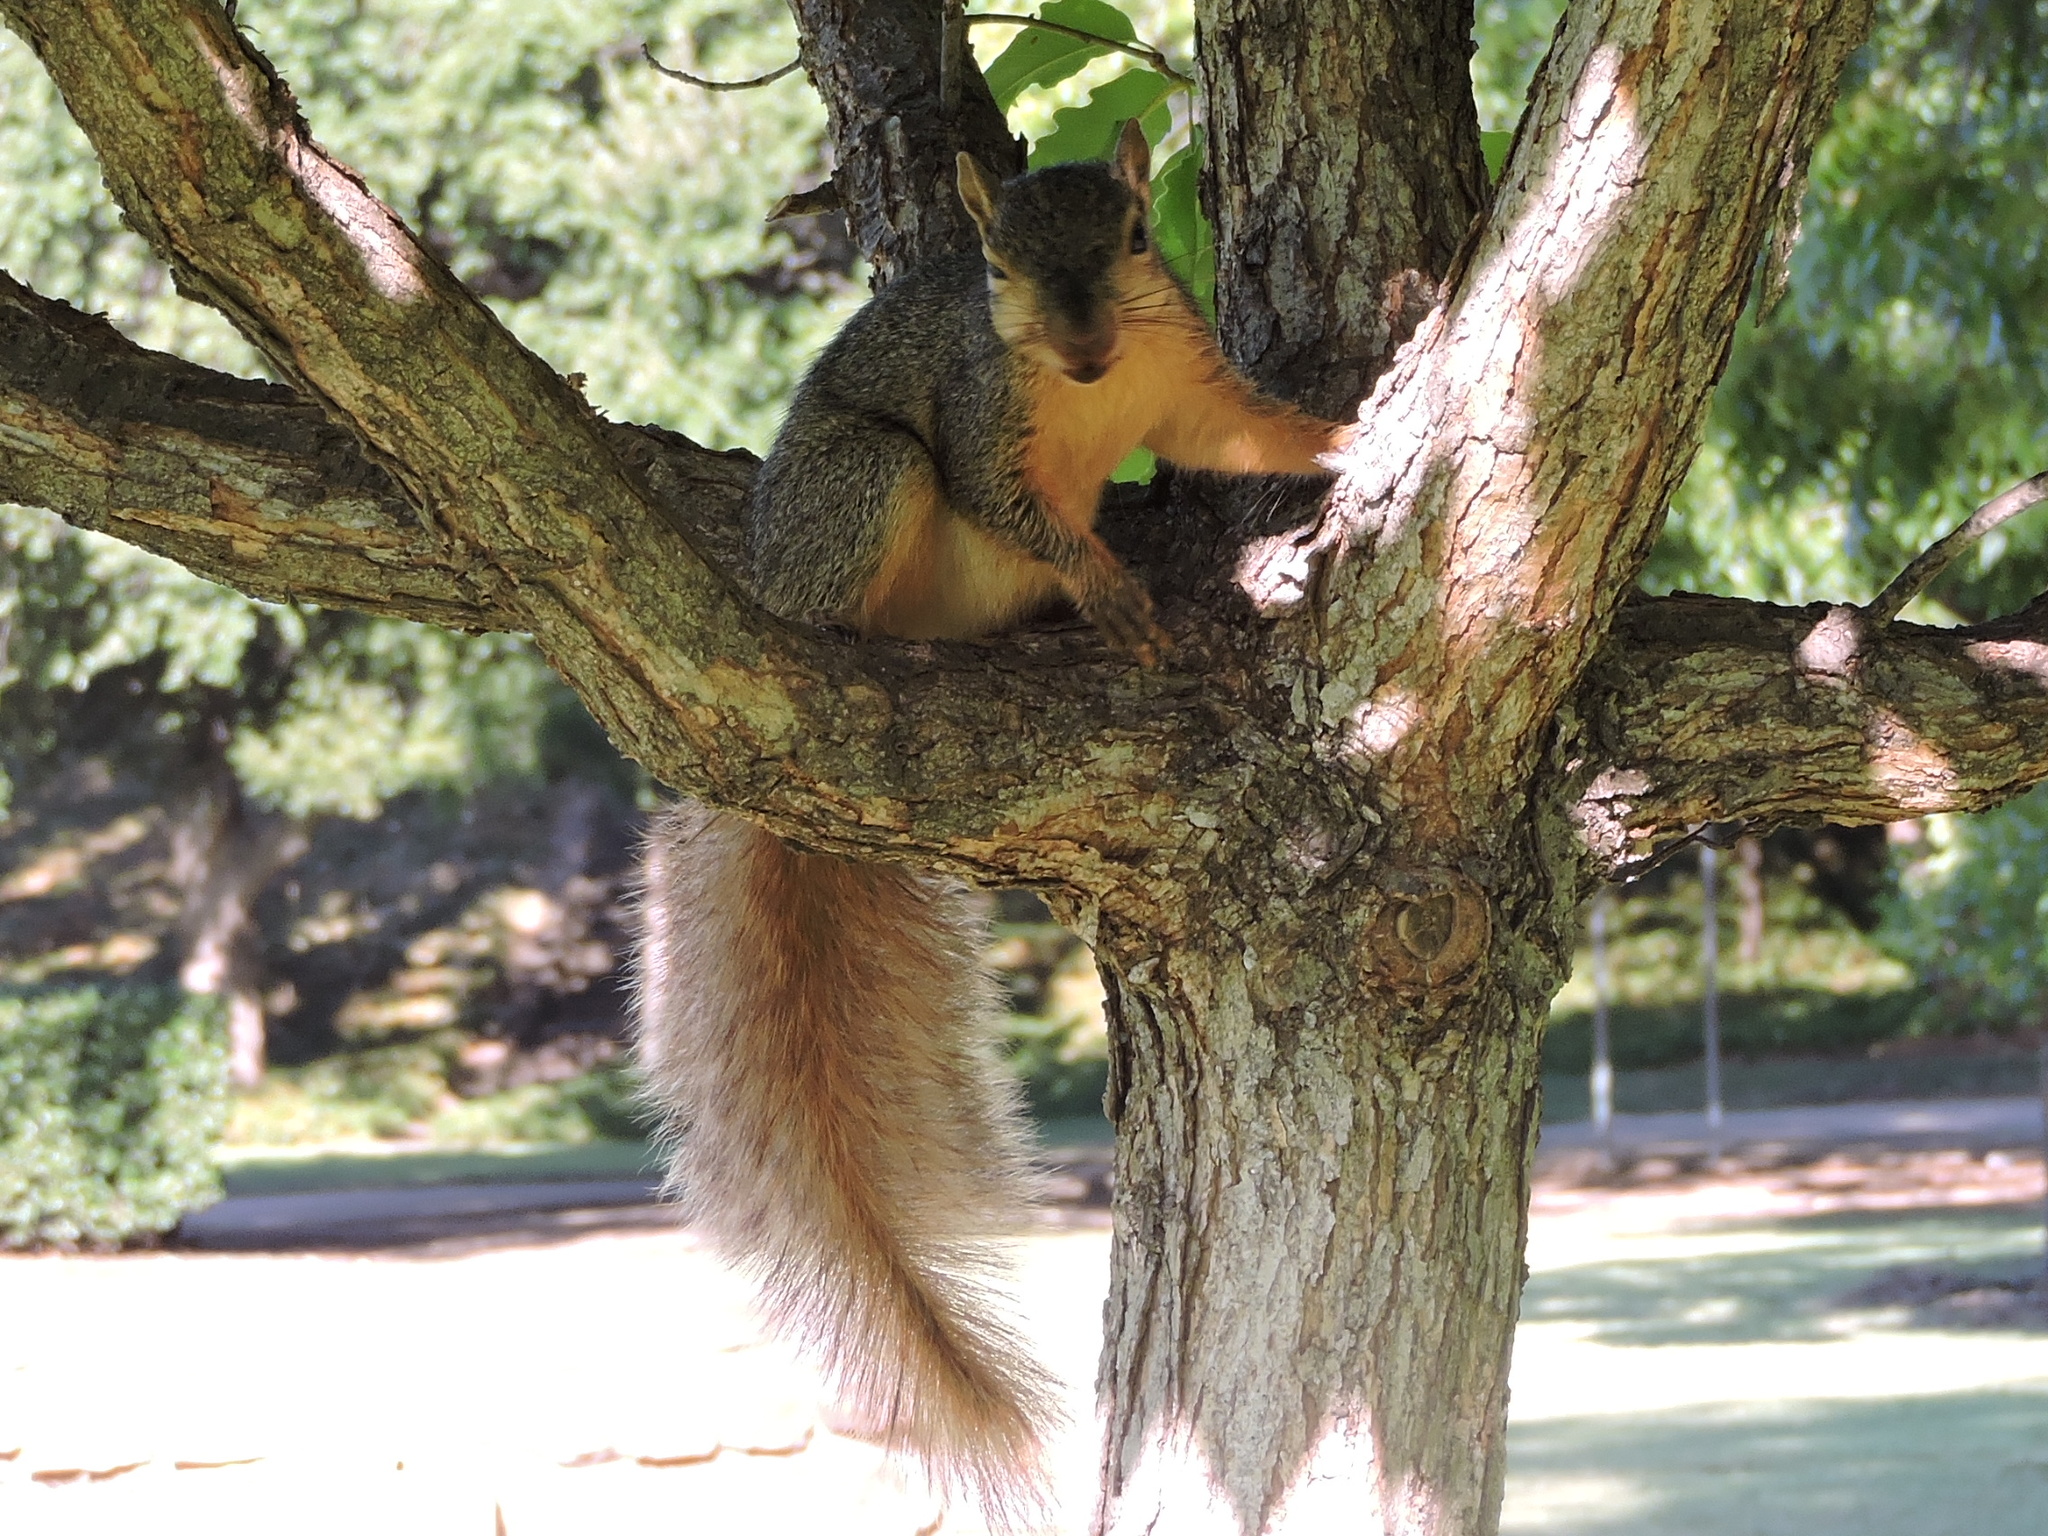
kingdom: Animalia
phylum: Chordata
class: Mammalia
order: Rodentia
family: Sciuridae
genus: Sciurus
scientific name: Sciurus niger
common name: Fox squirrel
